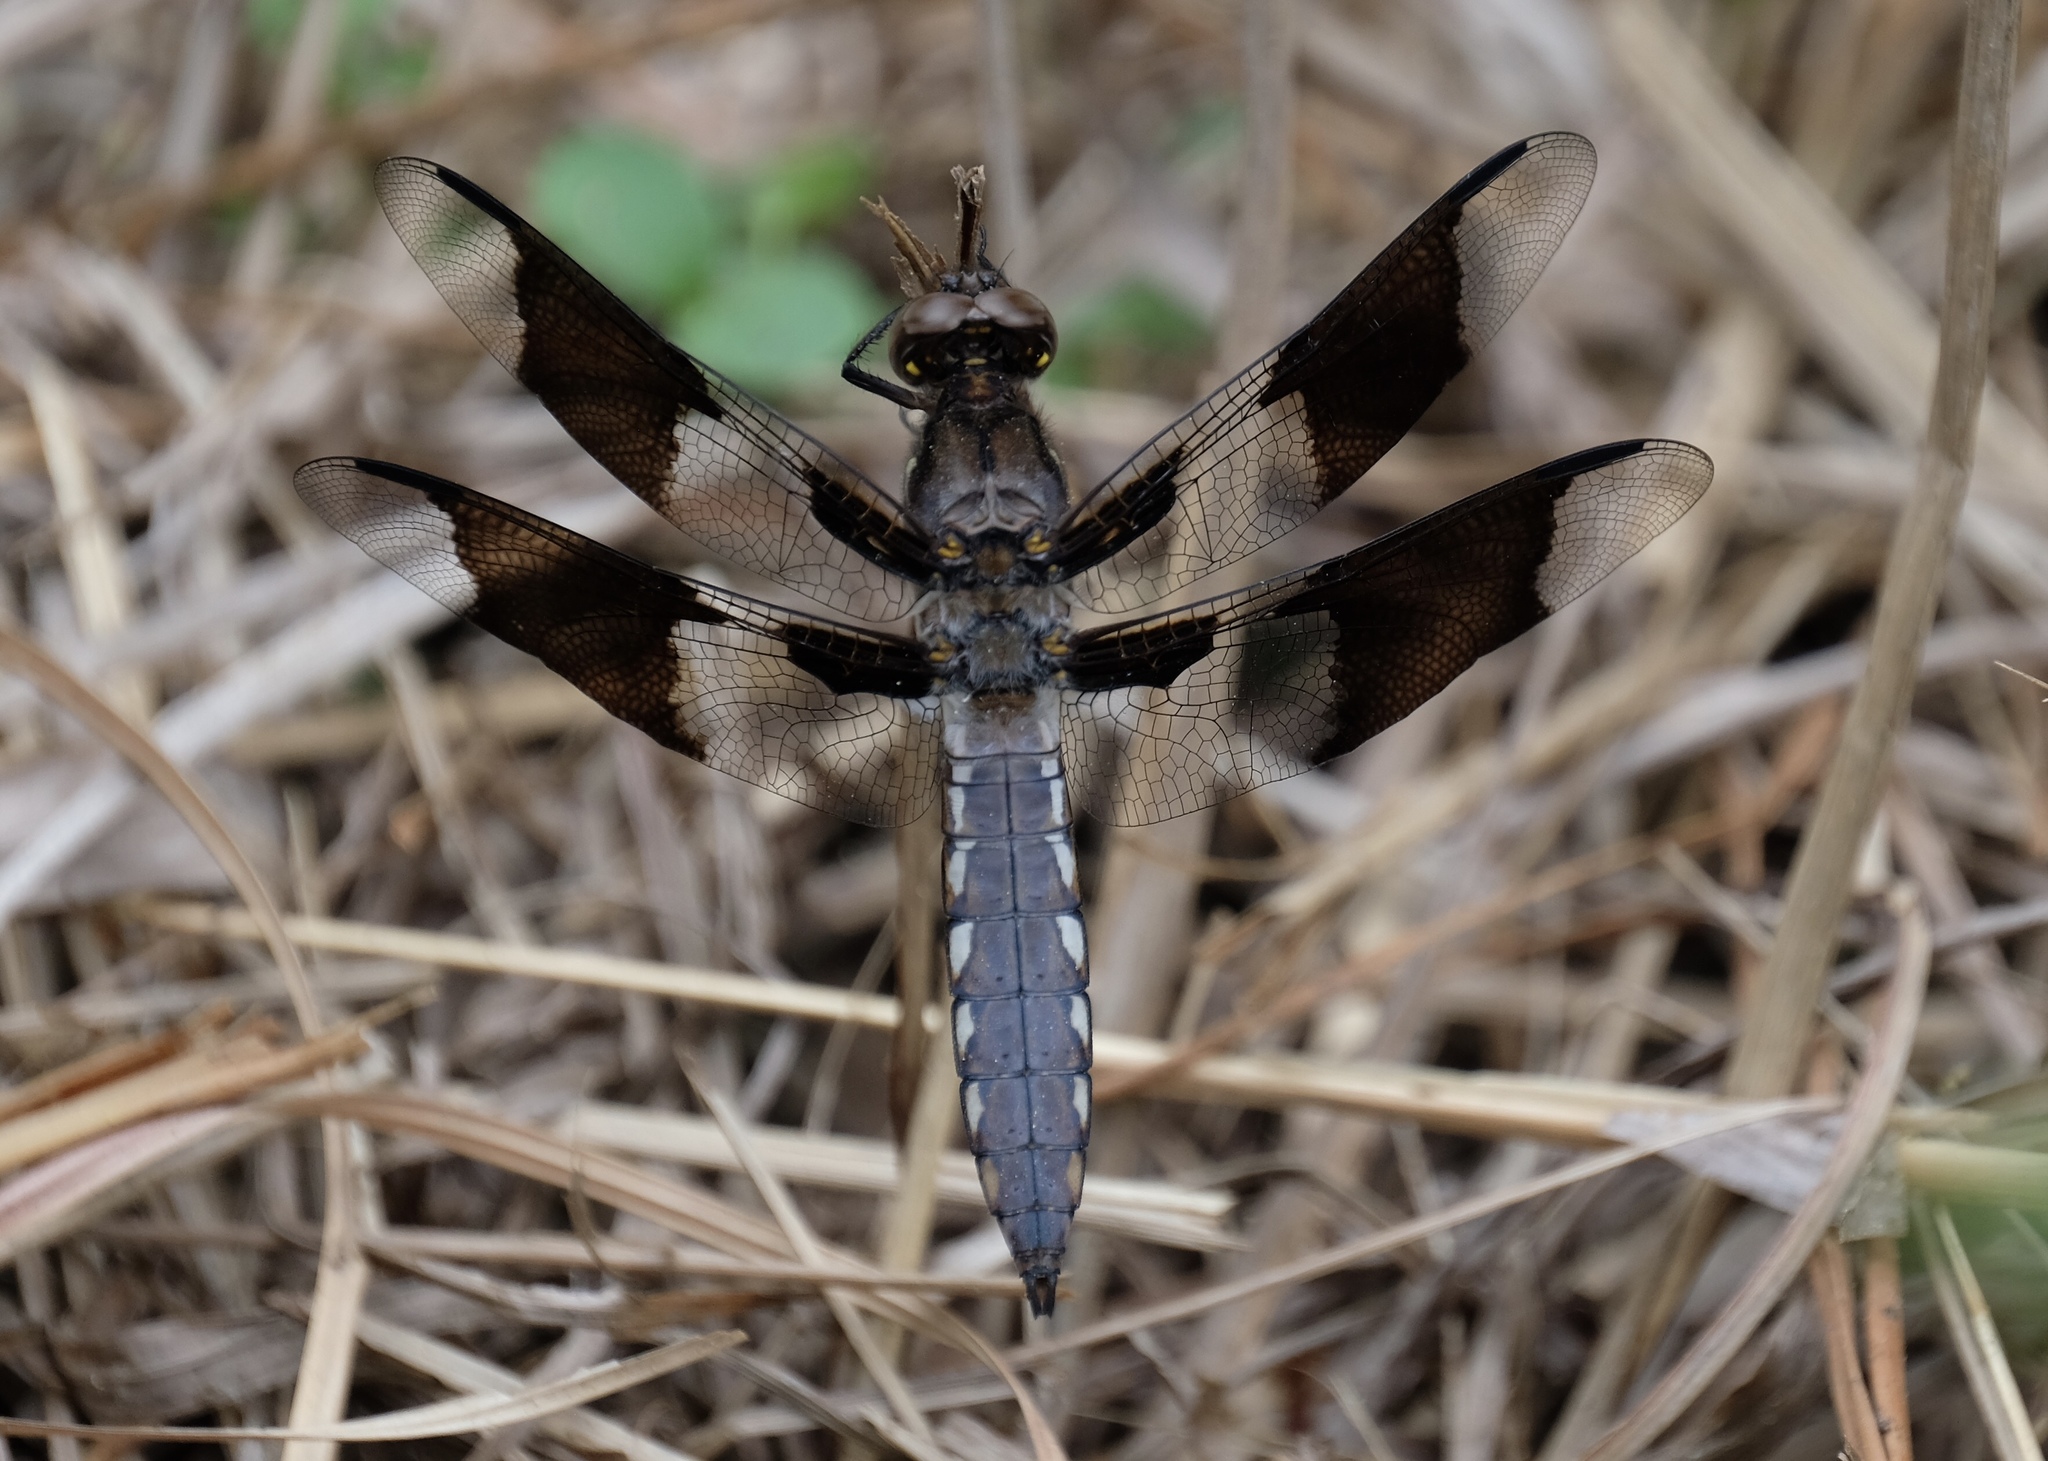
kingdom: Animalia
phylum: Arthropoda
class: Insecta
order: Odonata
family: Libellulidae
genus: Plathemis
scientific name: Plathemis lydia
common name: Common whitetail
